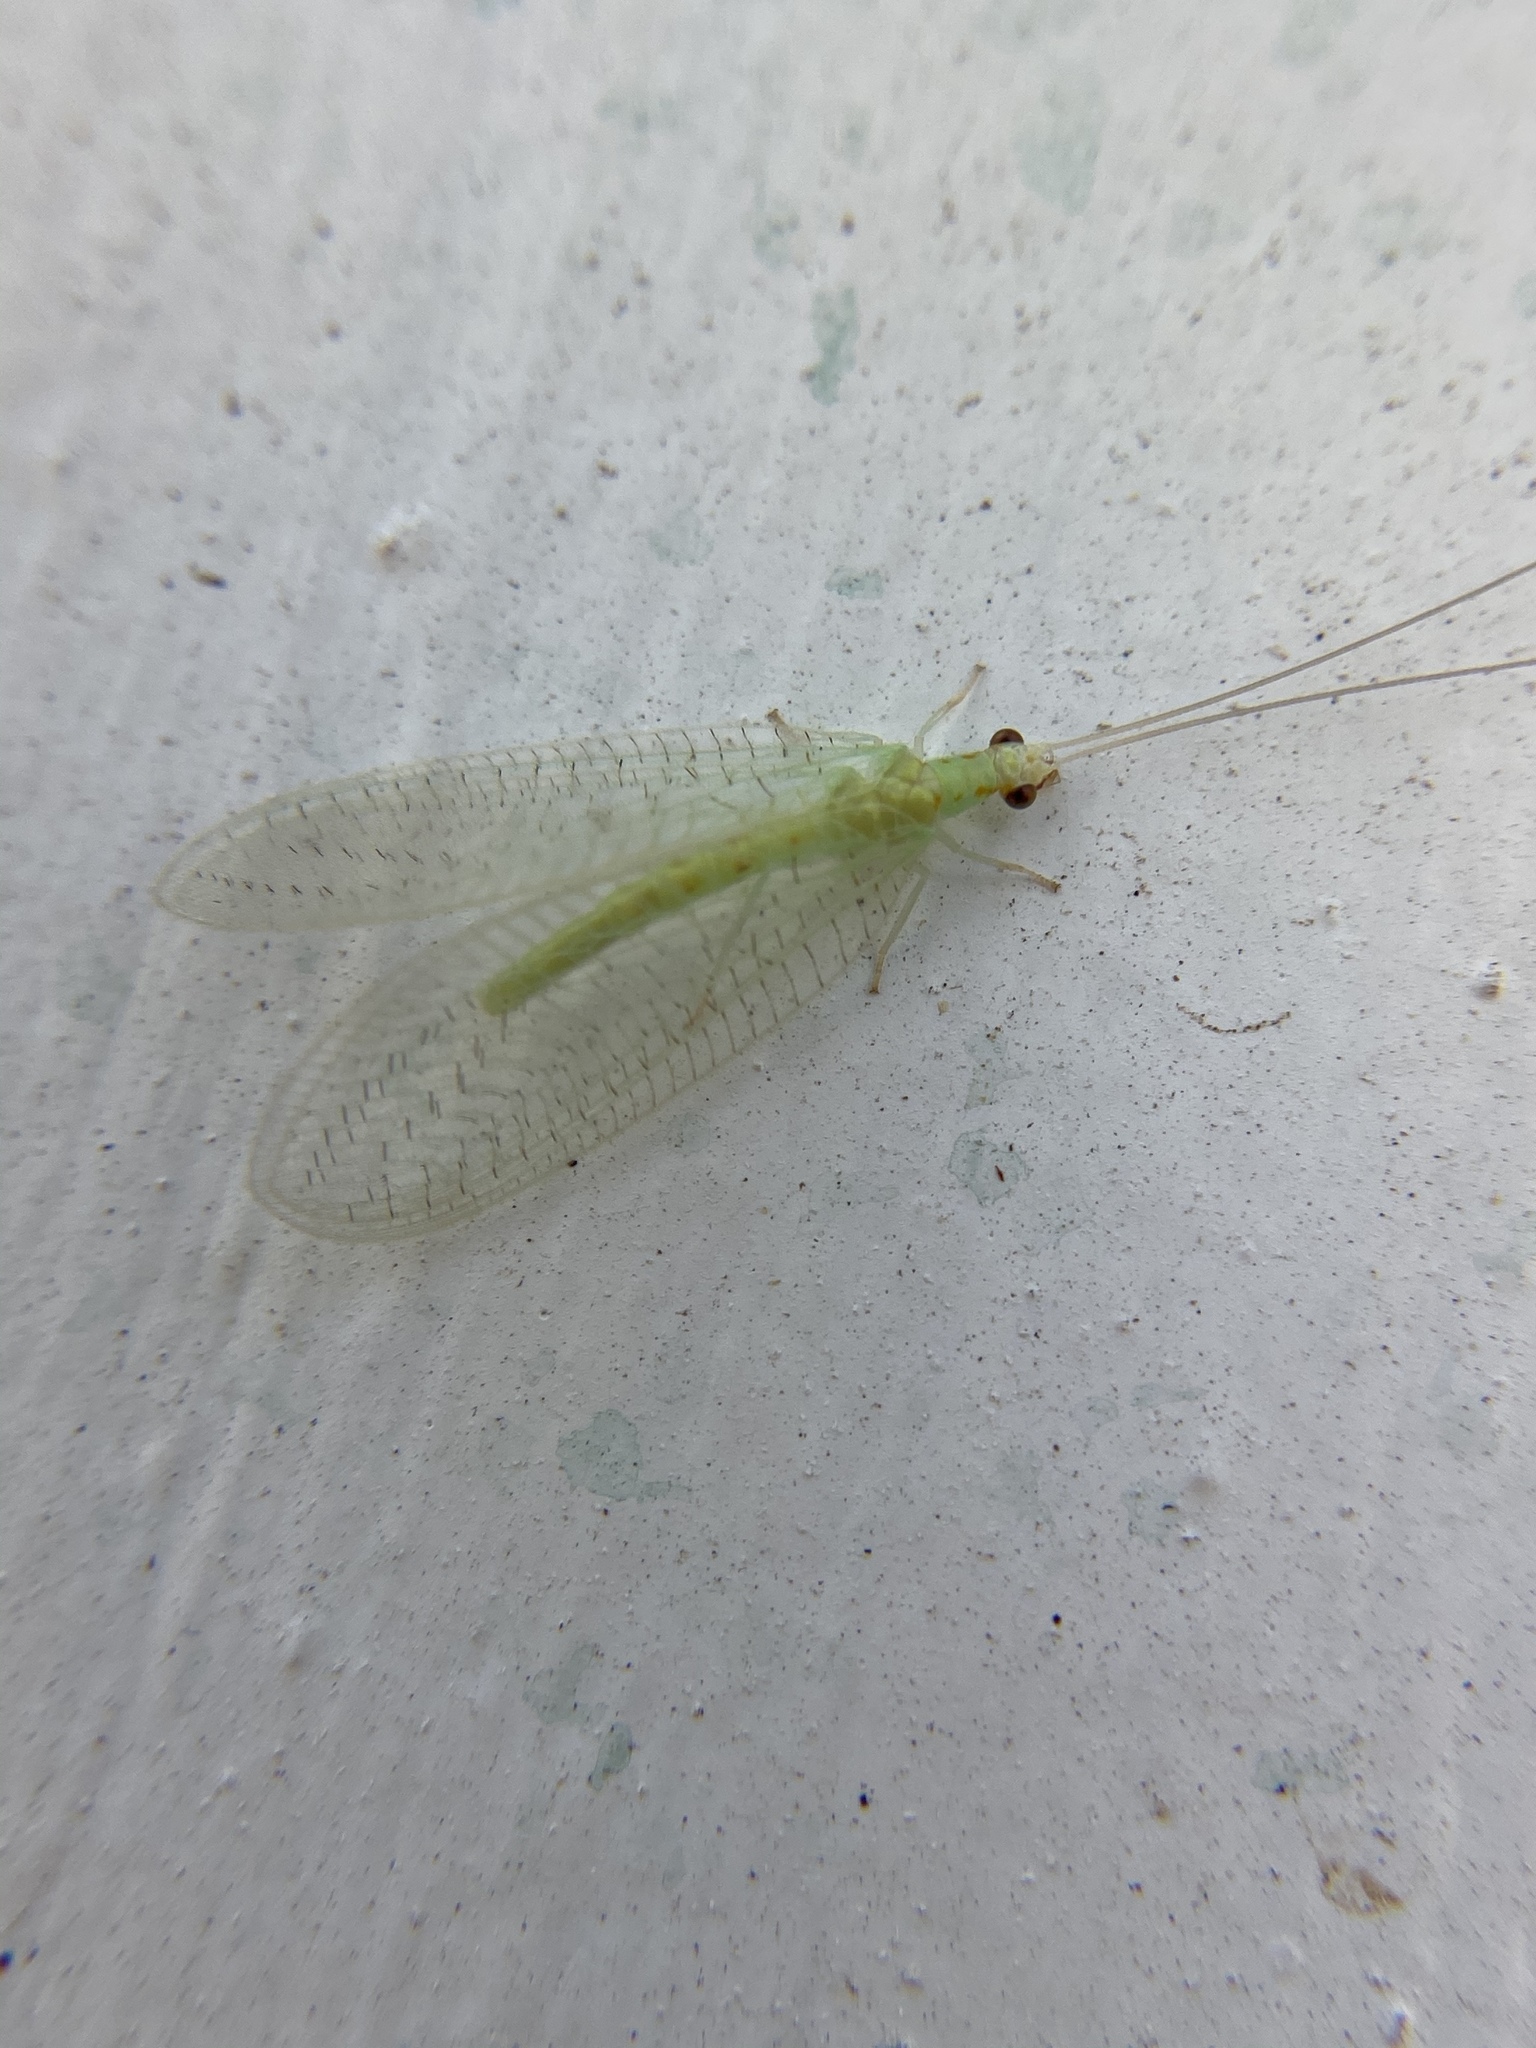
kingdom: Animalia
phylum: Arthropoda
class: Insecta
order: Neuroptera
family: Chrysopidae
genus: Chrysopa
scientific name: Chrysopa quadripunctata
